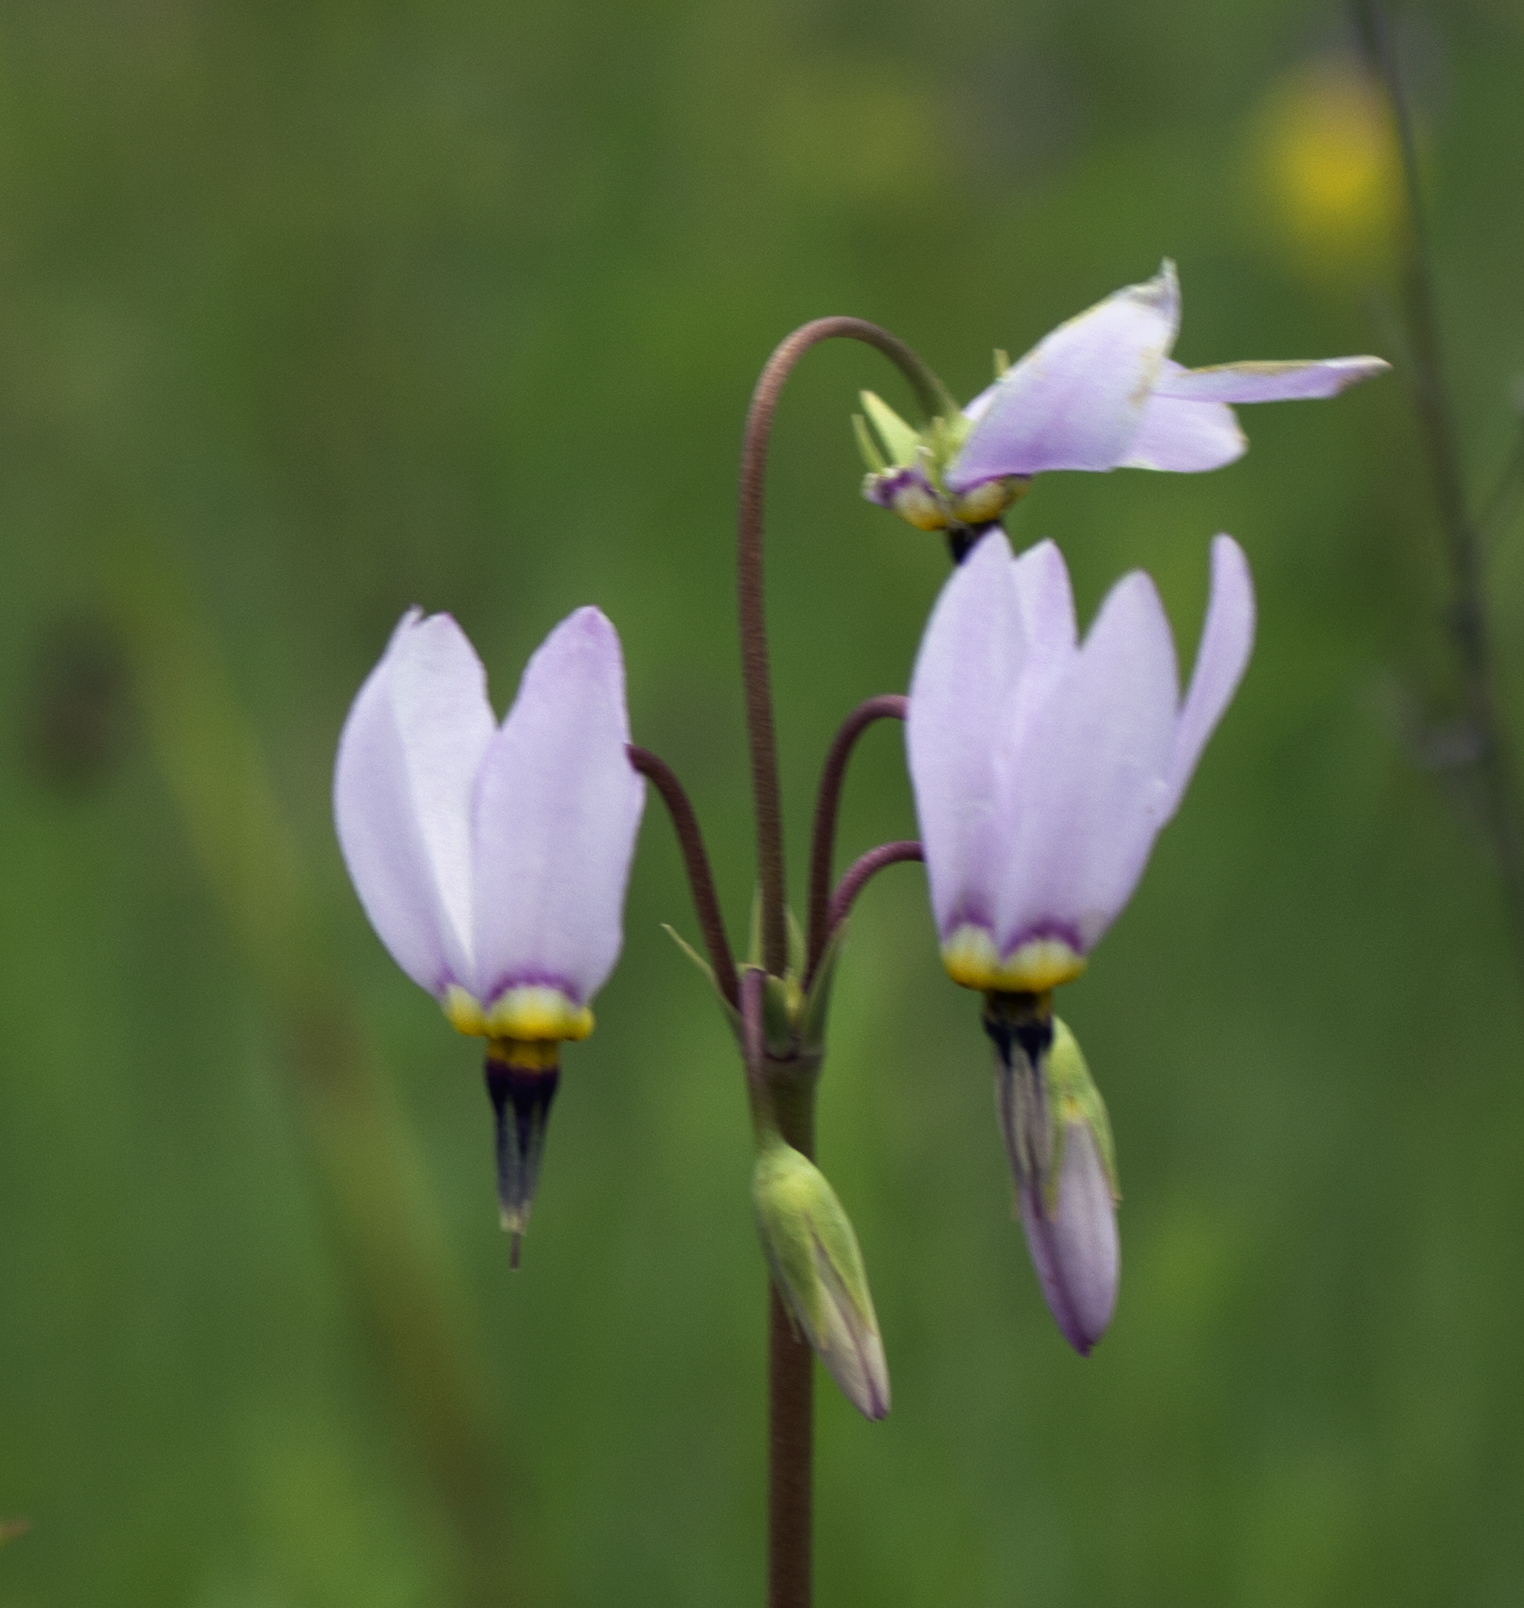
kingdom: Plantae
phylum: Tracheophyta
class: Magnoliopsida
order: Ericales
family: Primulaceae
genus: Dodecatheon
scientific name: Dodecatheon meadia
